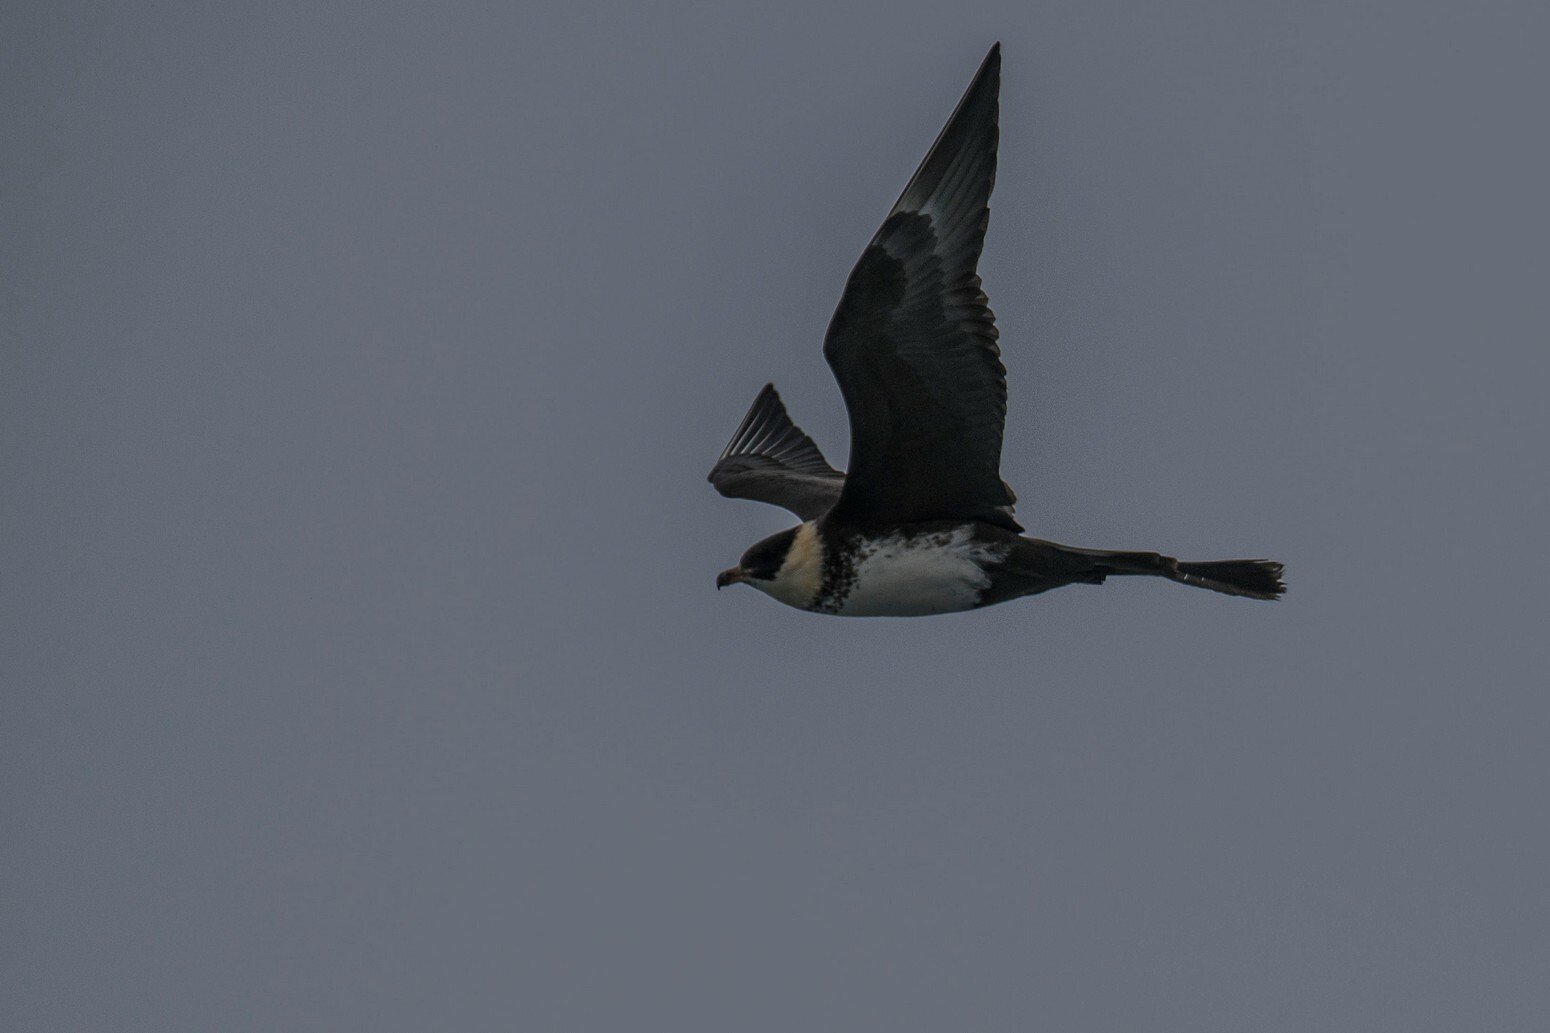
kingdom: Animalia
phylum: Chordata
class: Aves
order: Charadriiformes
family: Stercorariidae
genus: Stercorarius
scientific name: Stercorarius pomarinus
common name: Pomarine jaeger
